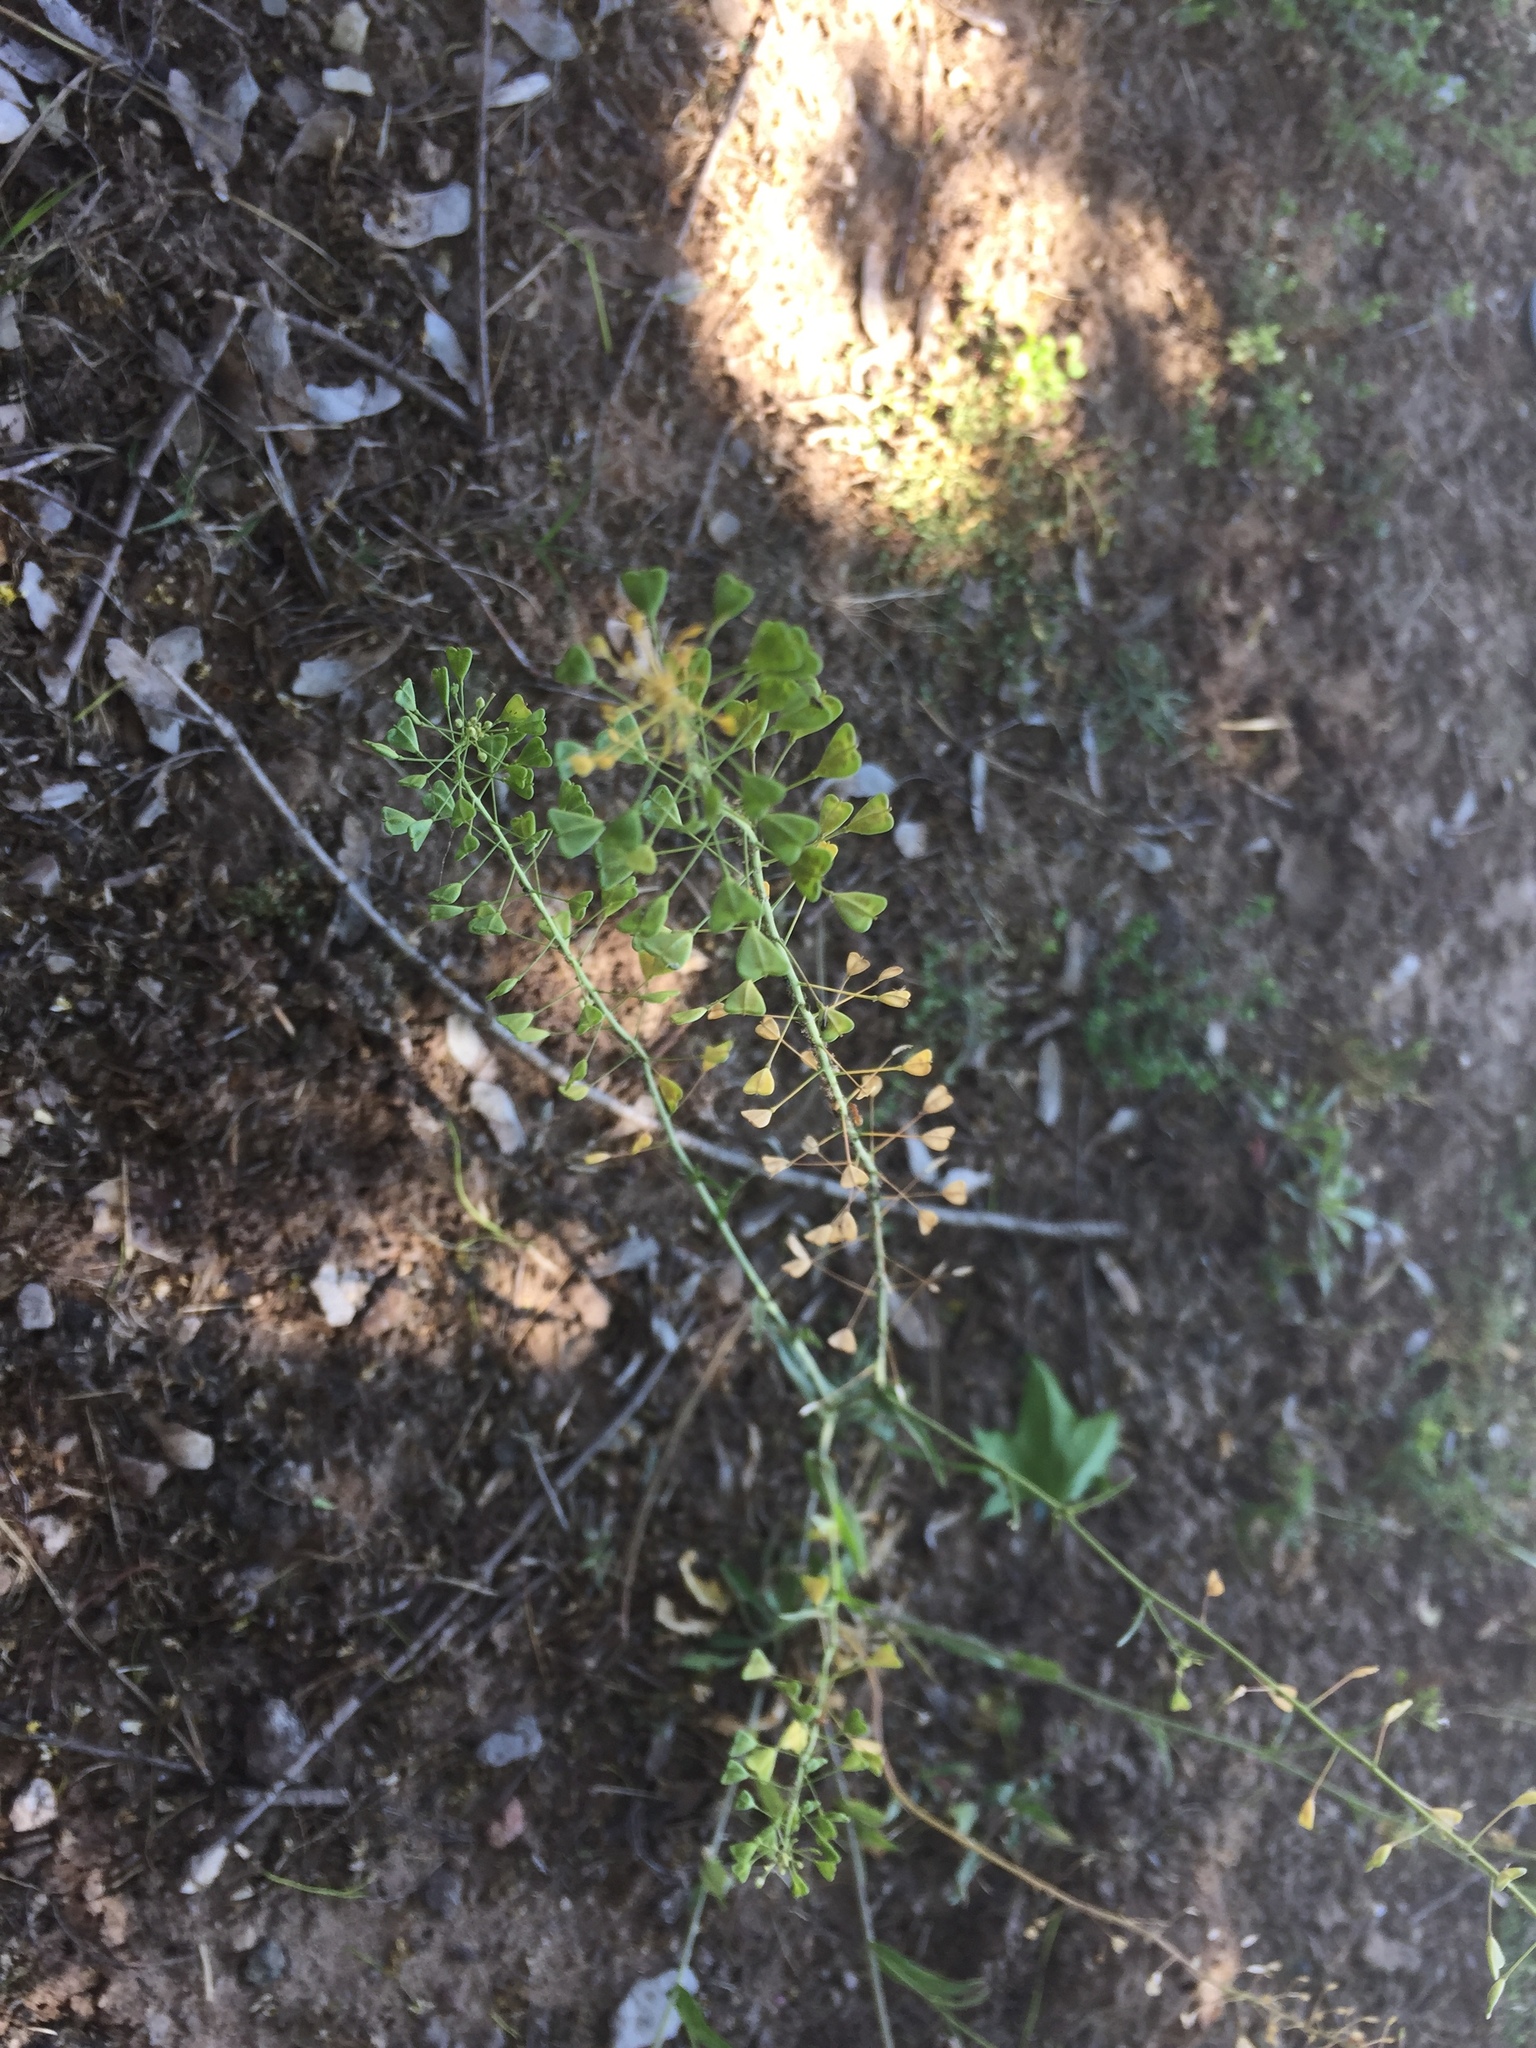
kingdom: Plantae
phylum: Tracheophyta
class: Magnoliopsida
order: Brassicales
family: Brassicaceae
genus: Capsella
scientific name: Capsella bursa-pastoris
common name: Shepherd's purse
